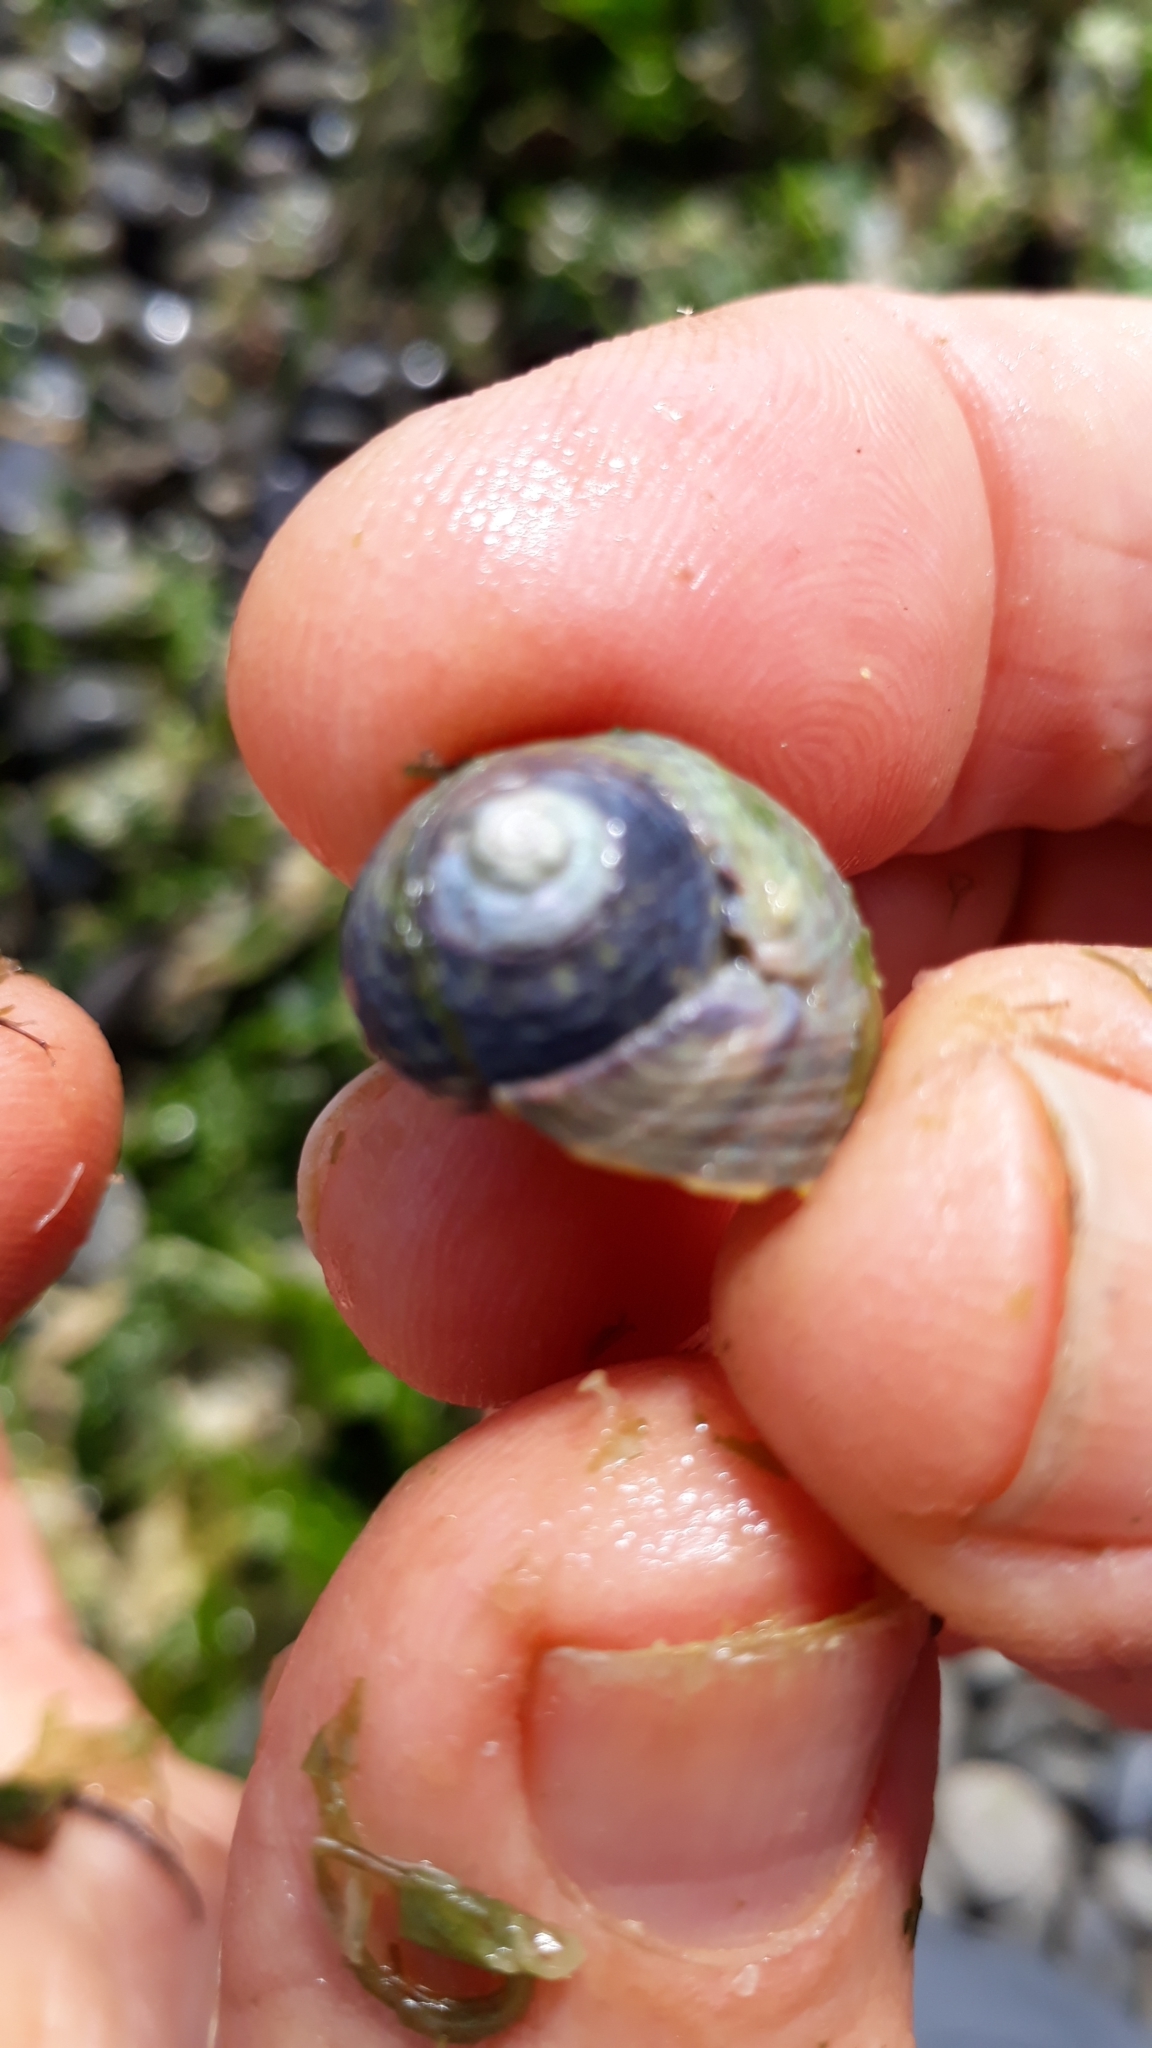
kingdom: Animalia
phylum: Mollusca
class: Gastropoda
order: Trochida
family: Trochidae
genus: Diloma
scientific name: Diloma subrostratum
